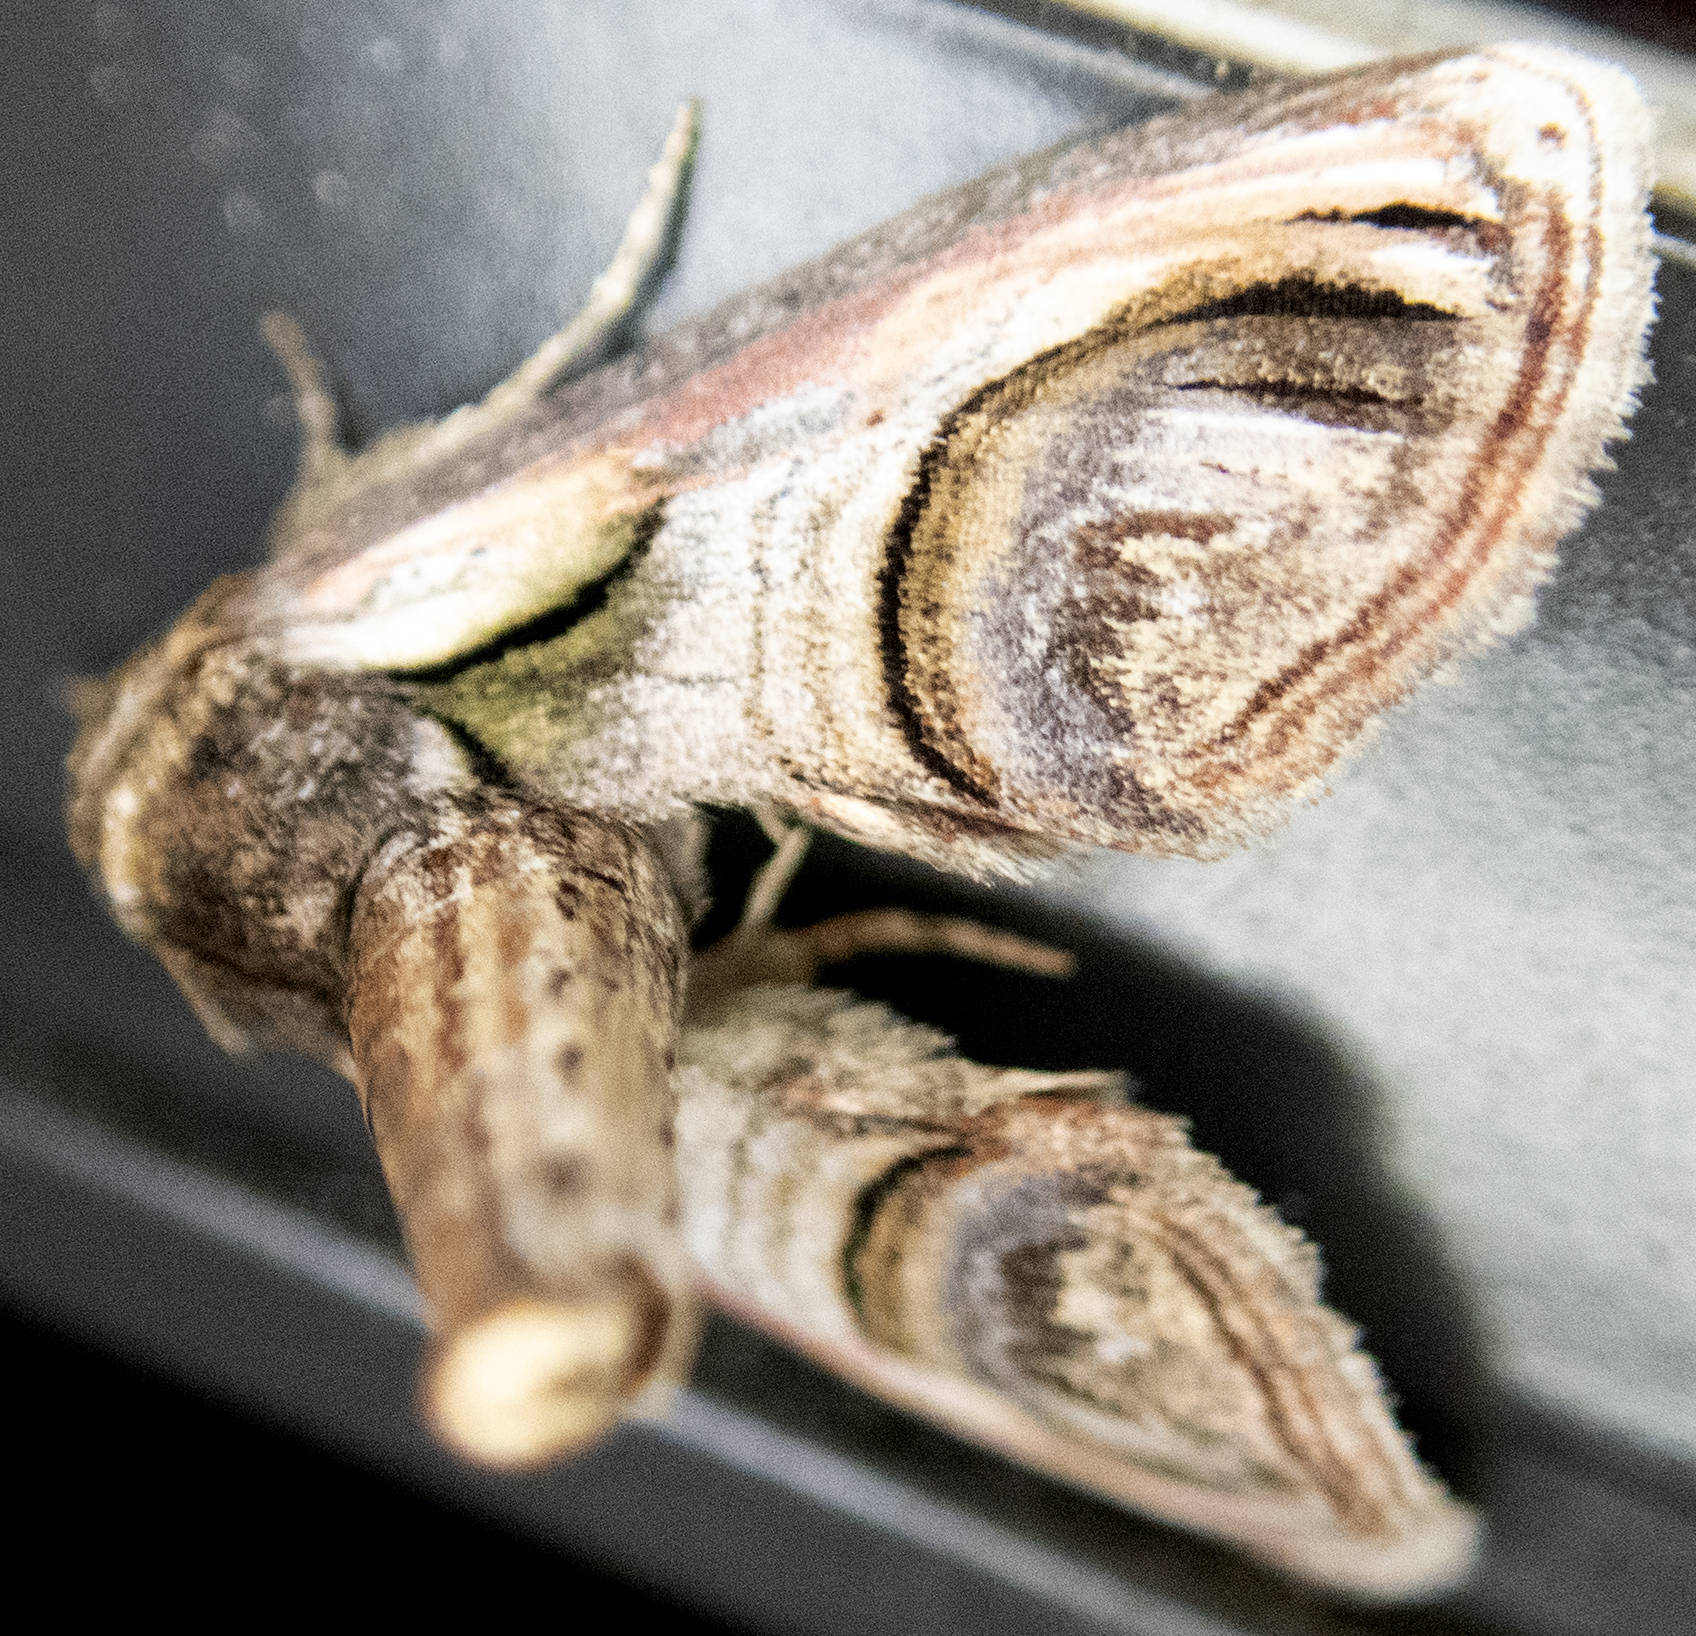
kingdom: Animalia
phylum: Arthropoda
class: Insecta
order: Lepidoptera
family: Euteliidae
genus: Paectes
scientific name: Paectes oculatrix
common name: Eyed paectes moth
